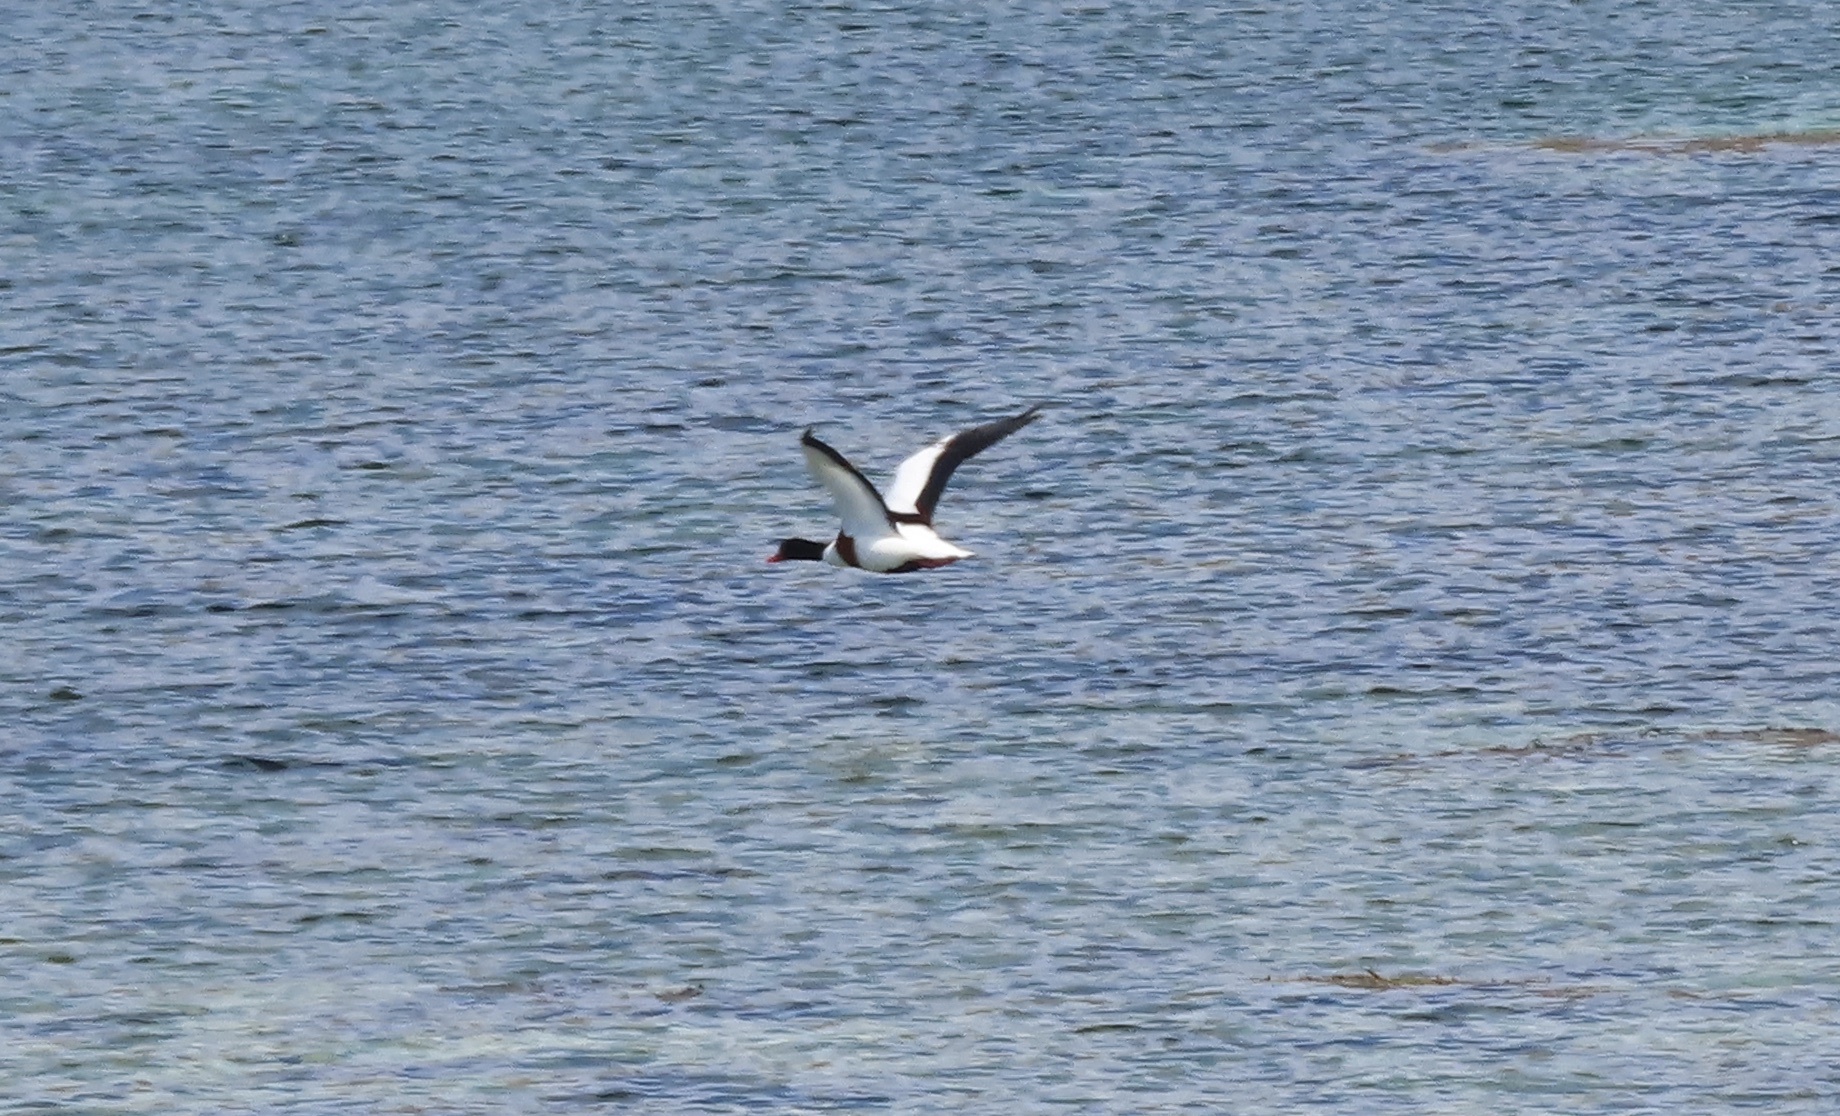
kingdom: Animalia
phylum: Chordata
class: Aves
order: Anseriformes
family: Anatidae
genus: Tadorna
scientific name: Tadorna tadorna
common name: Common shelduck
